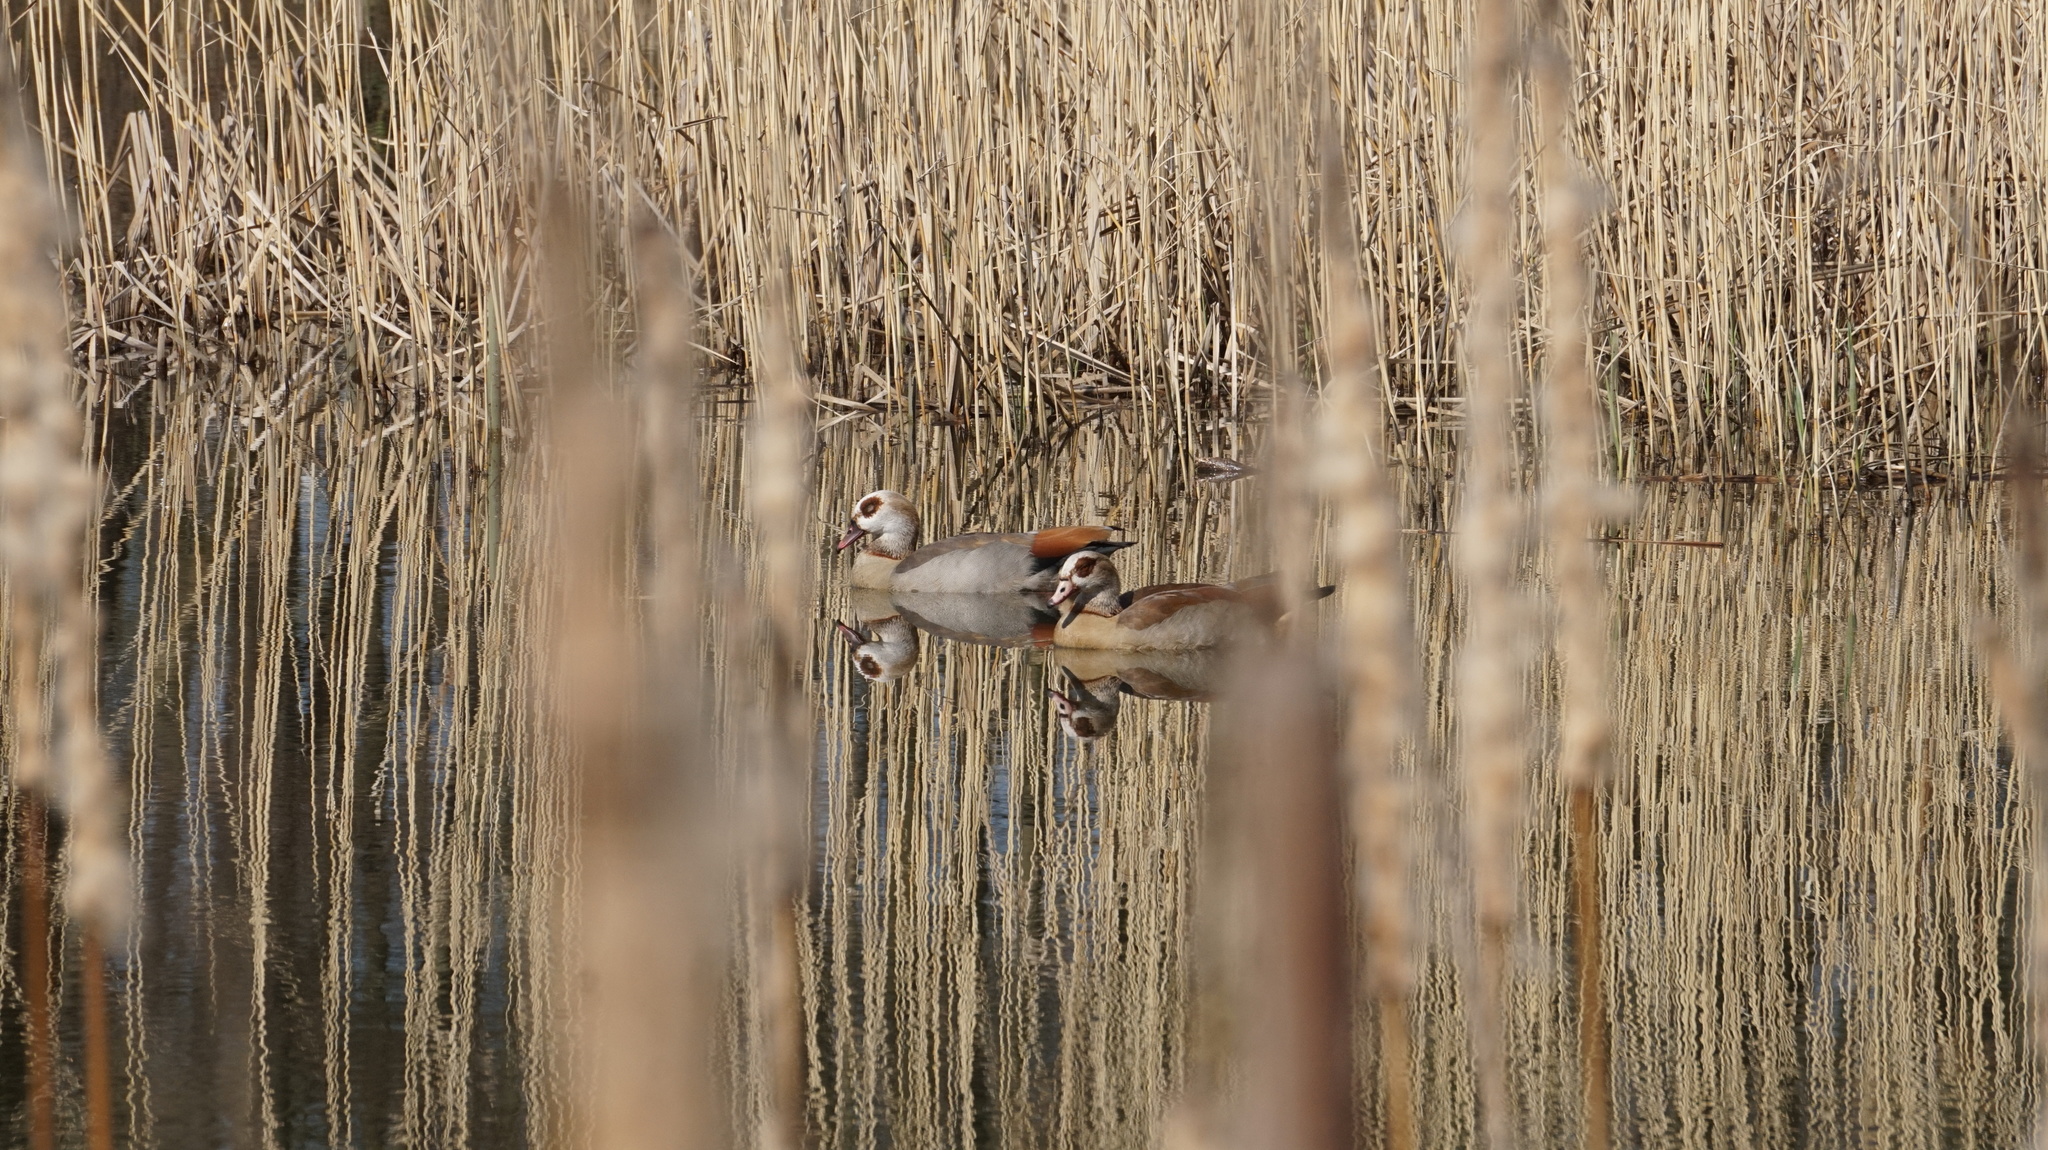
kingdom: Animalia
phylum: Chordata
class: Aves
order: Anseriformes
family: Anatidae
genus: Alopochen
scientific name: Alopochen aegyptiaca
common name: Egyptian goose
